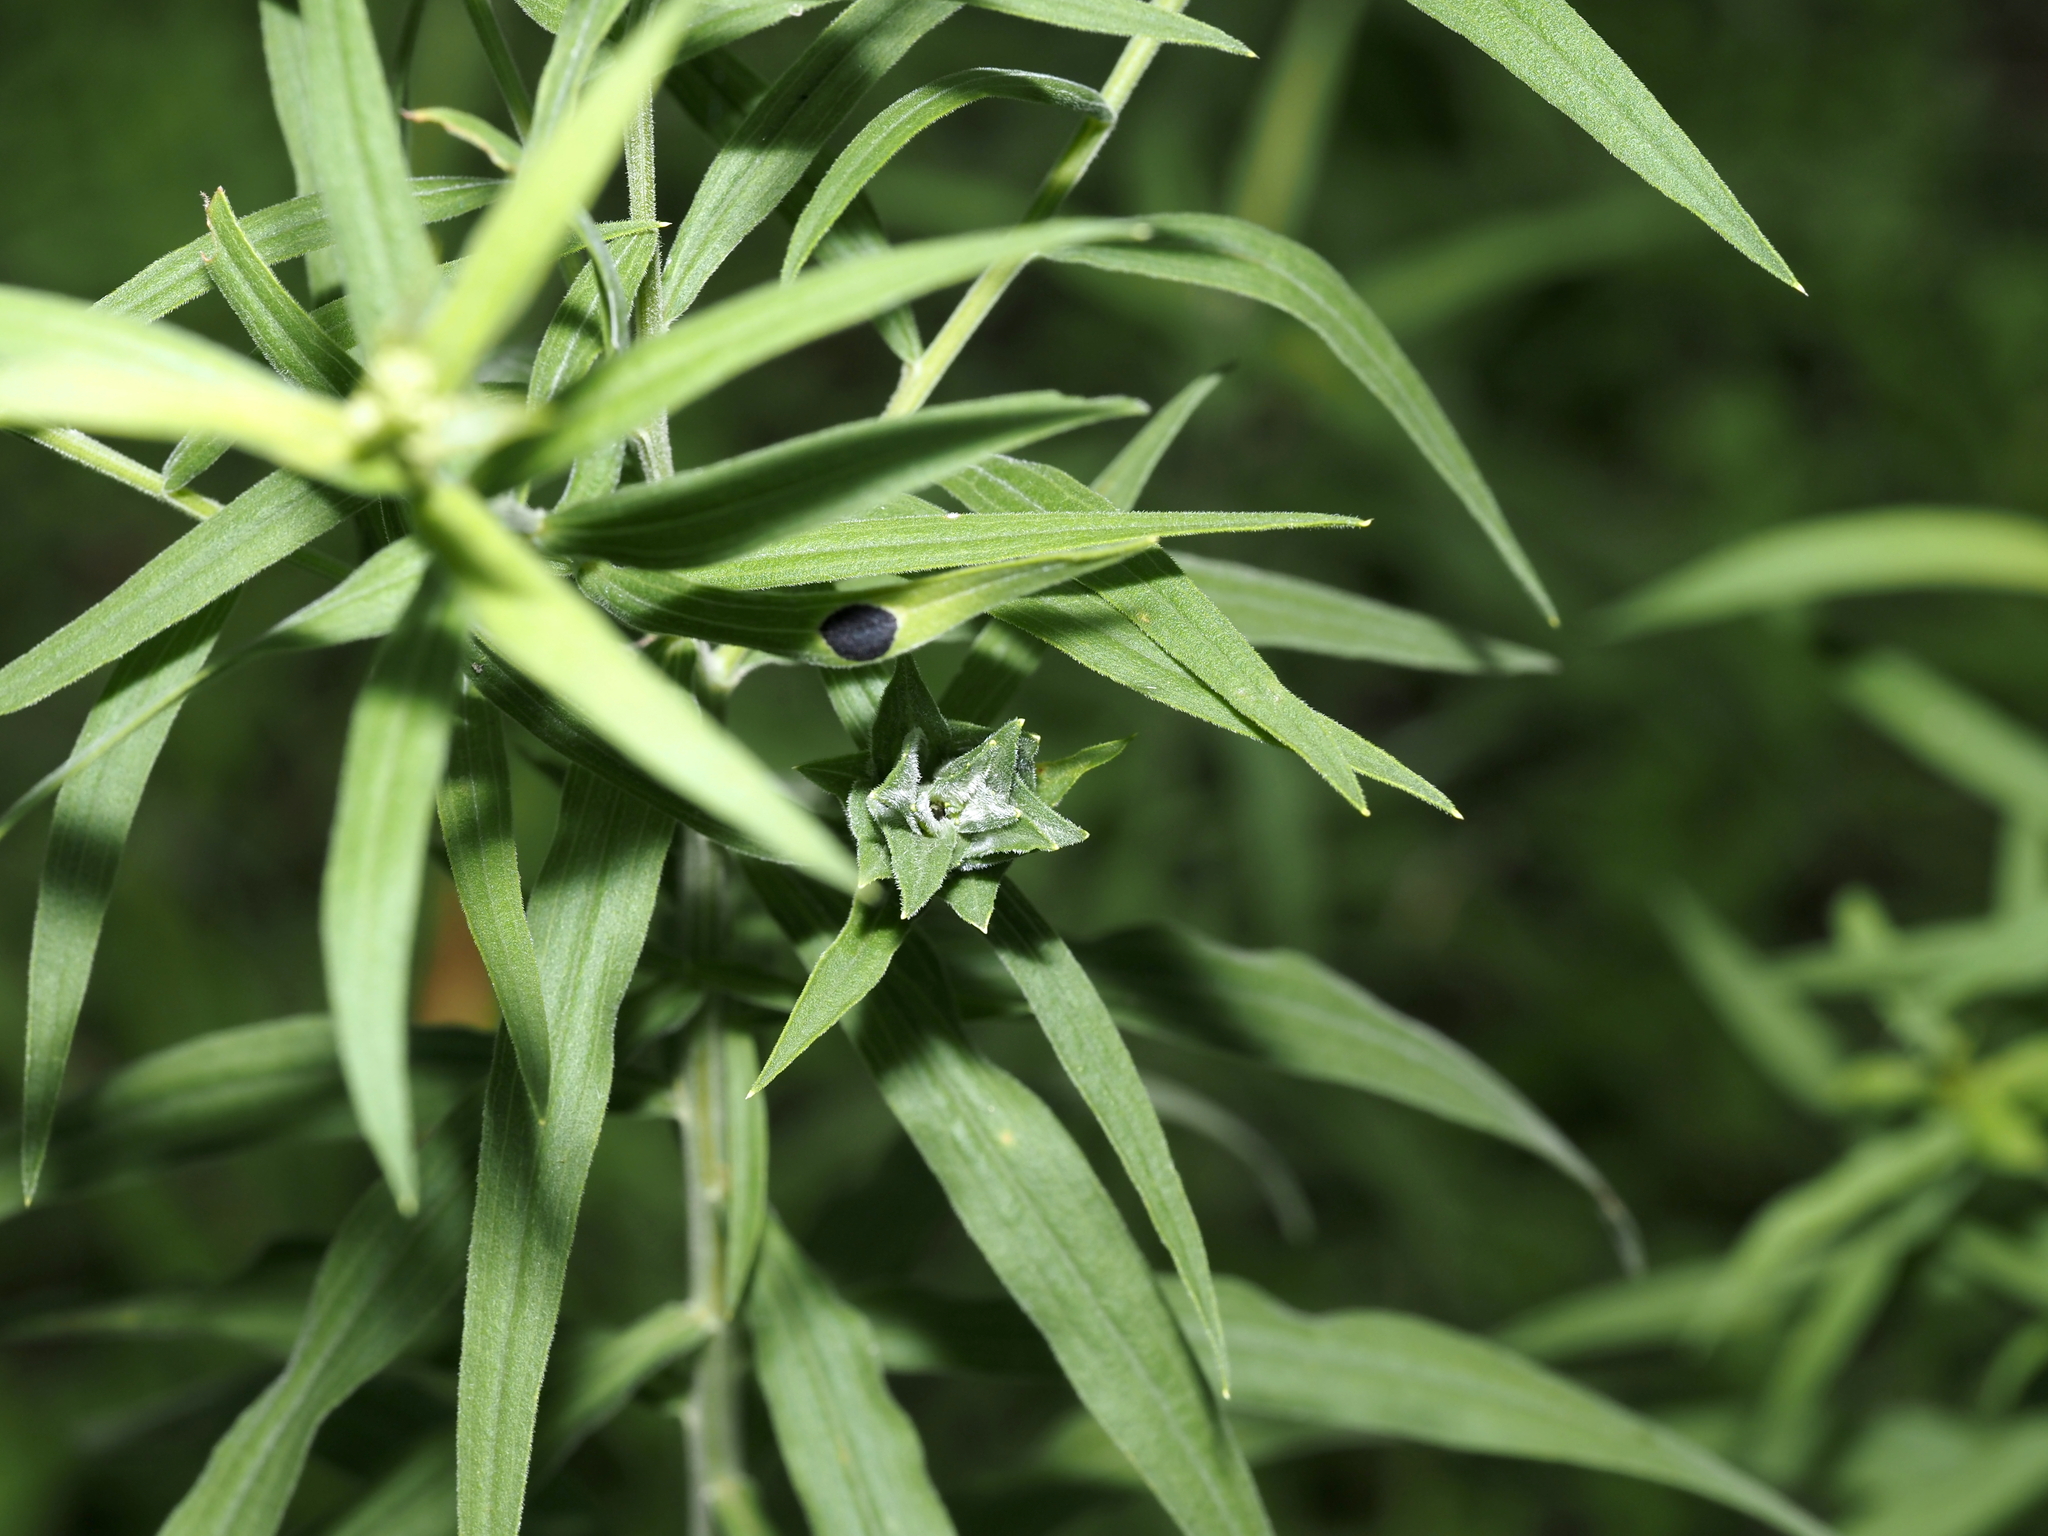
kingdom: Animalia
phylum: Arthropoda
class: Insecta
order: Diptera
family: Cecidomyiidae
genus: Asteromyia
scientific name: Asteromyia euthamiae
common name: Euthamia leaf gall midge
